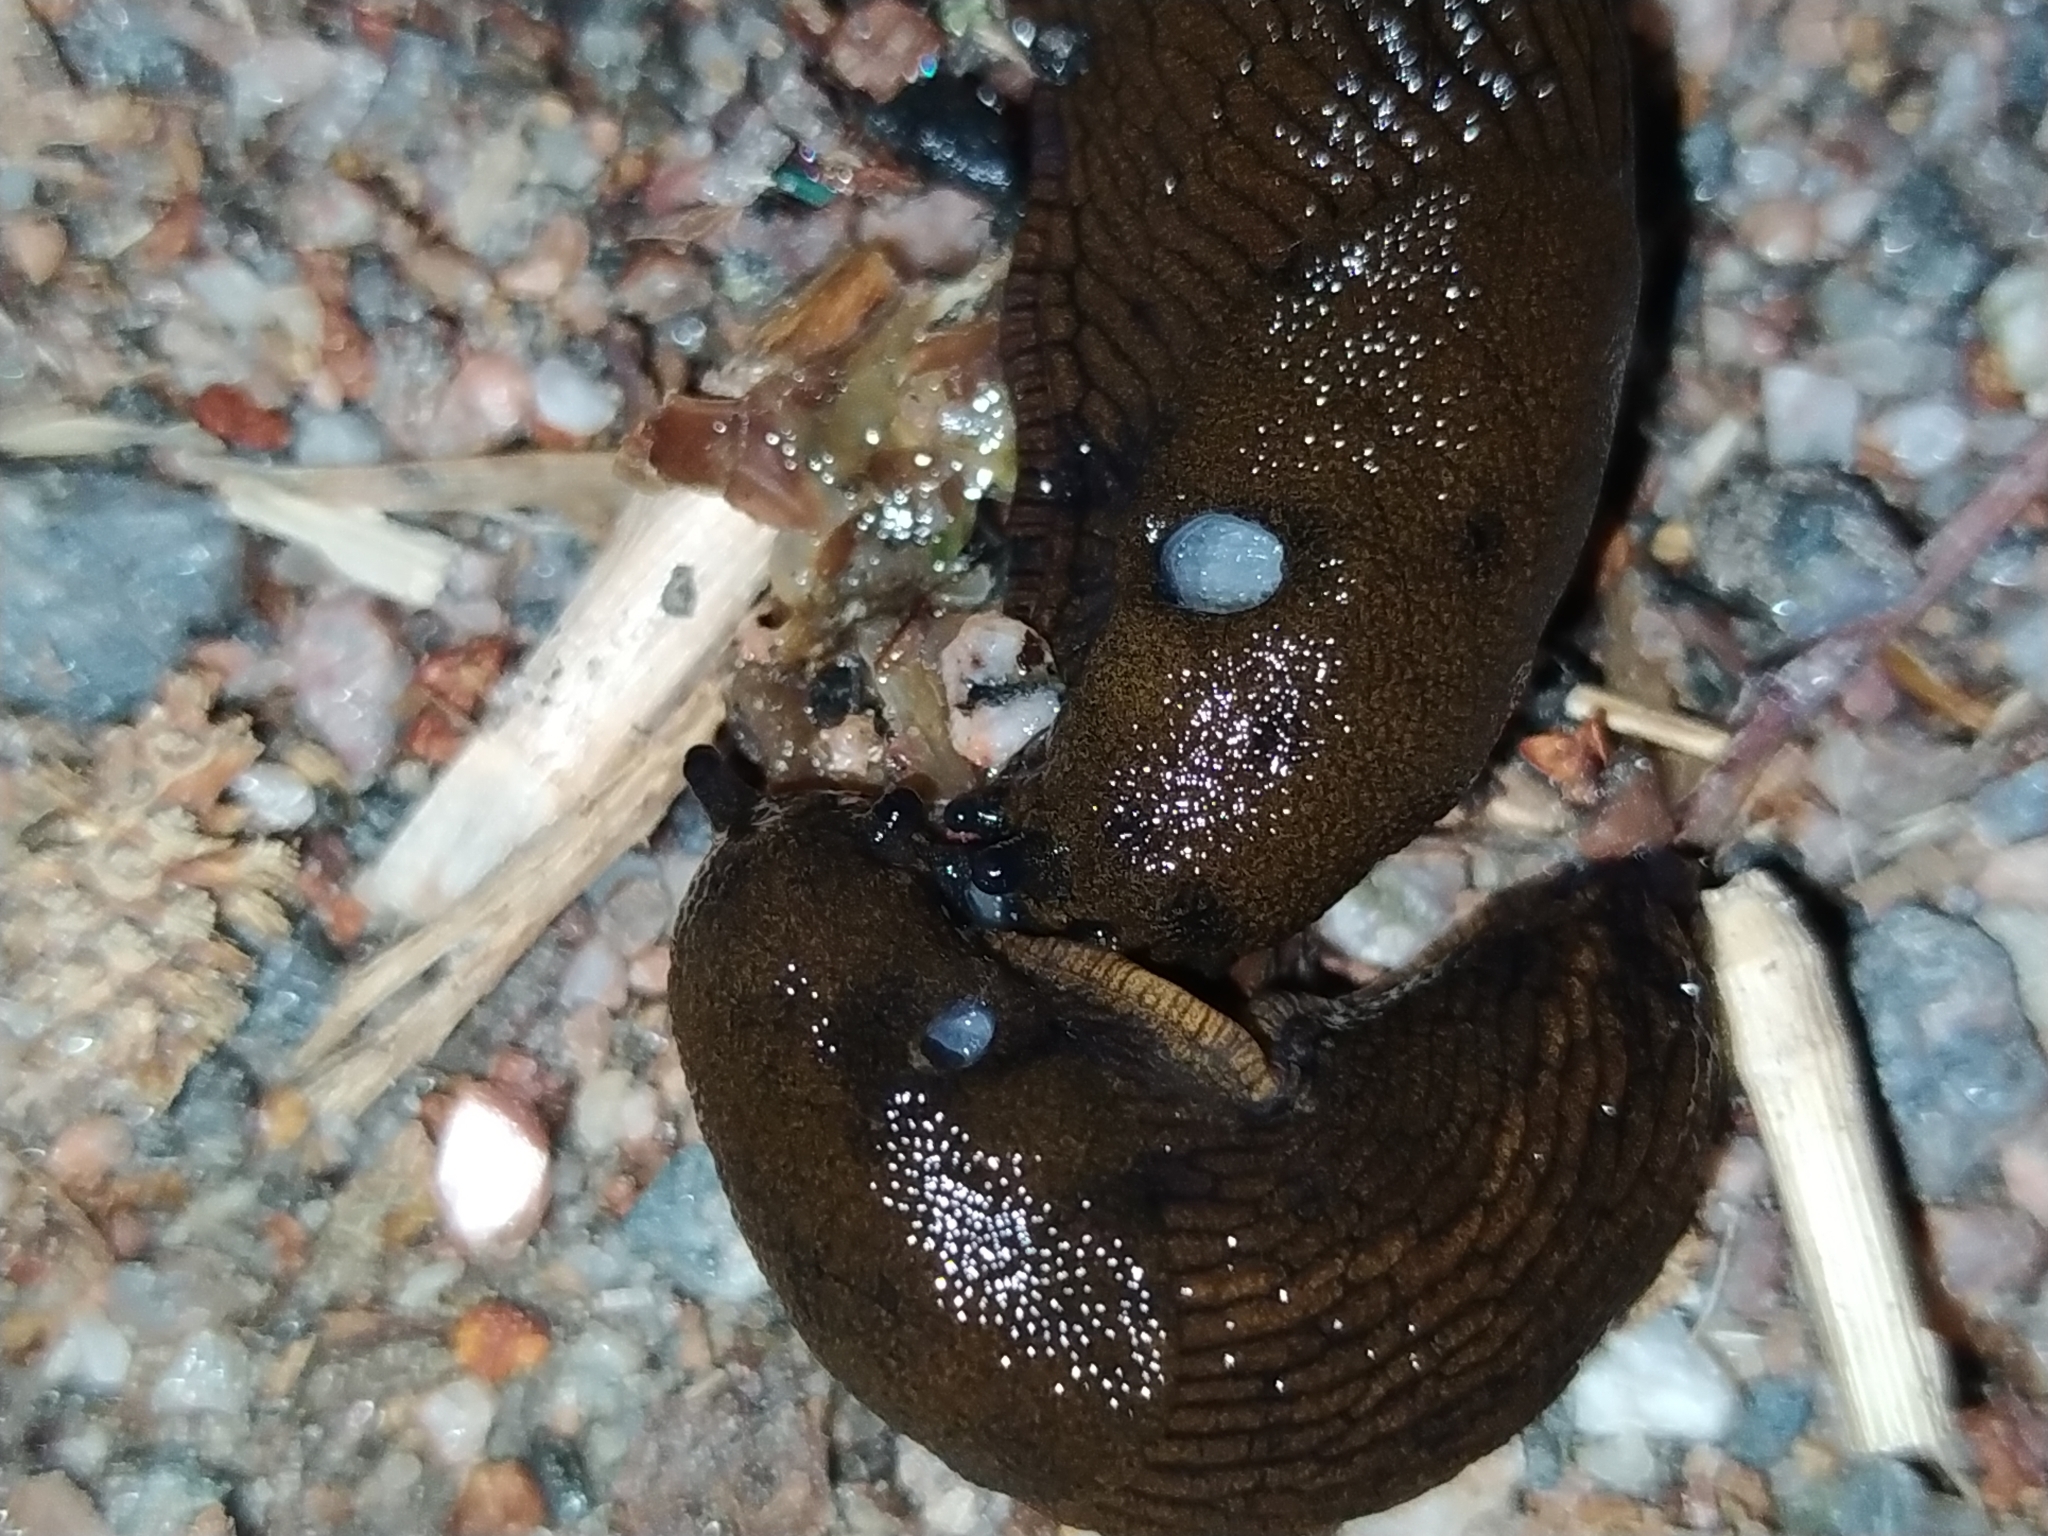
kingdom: Animalia
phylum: Mollusca
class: Gastropoda
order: Stylommatophora
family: Arionidae
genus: Arion
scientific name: Arion vulgaris
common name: Lusitanian slug
